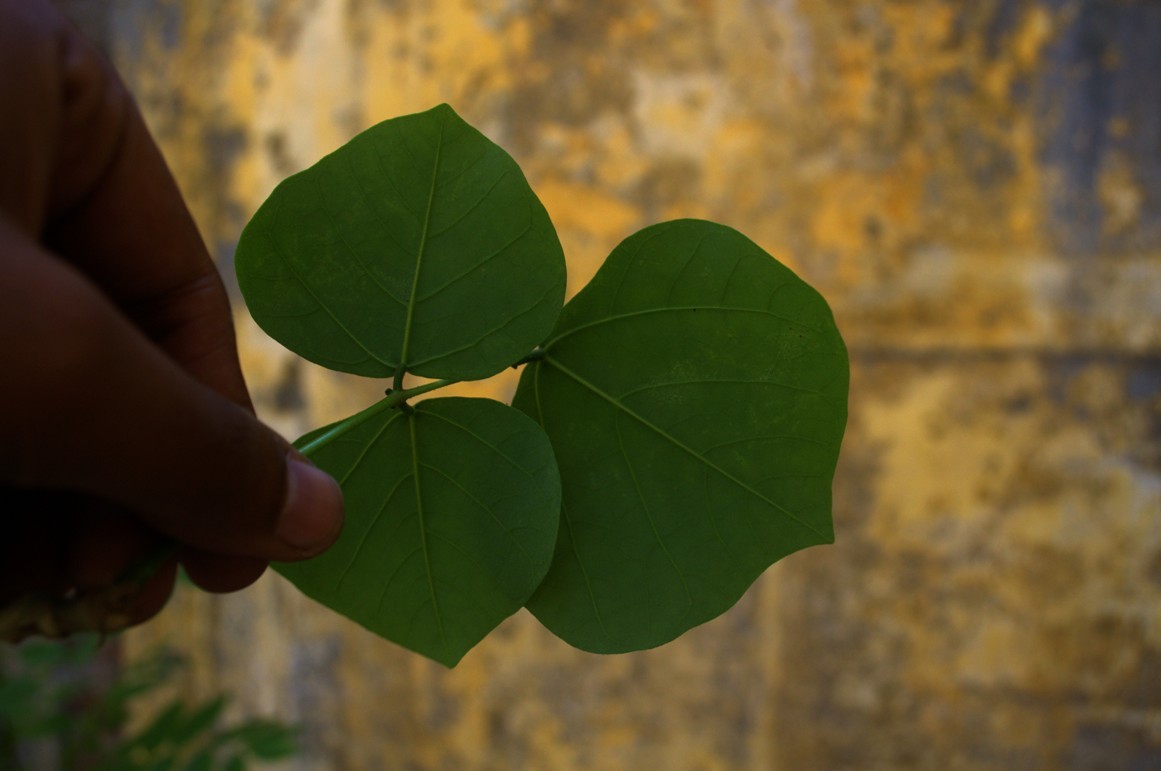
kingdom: Plantae
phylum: Tracheophyta
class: Magnoliopsida
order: Fabales
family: Fabaceae
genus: Erythrina
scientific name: Erythrina variegata
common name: Indian coral tree
